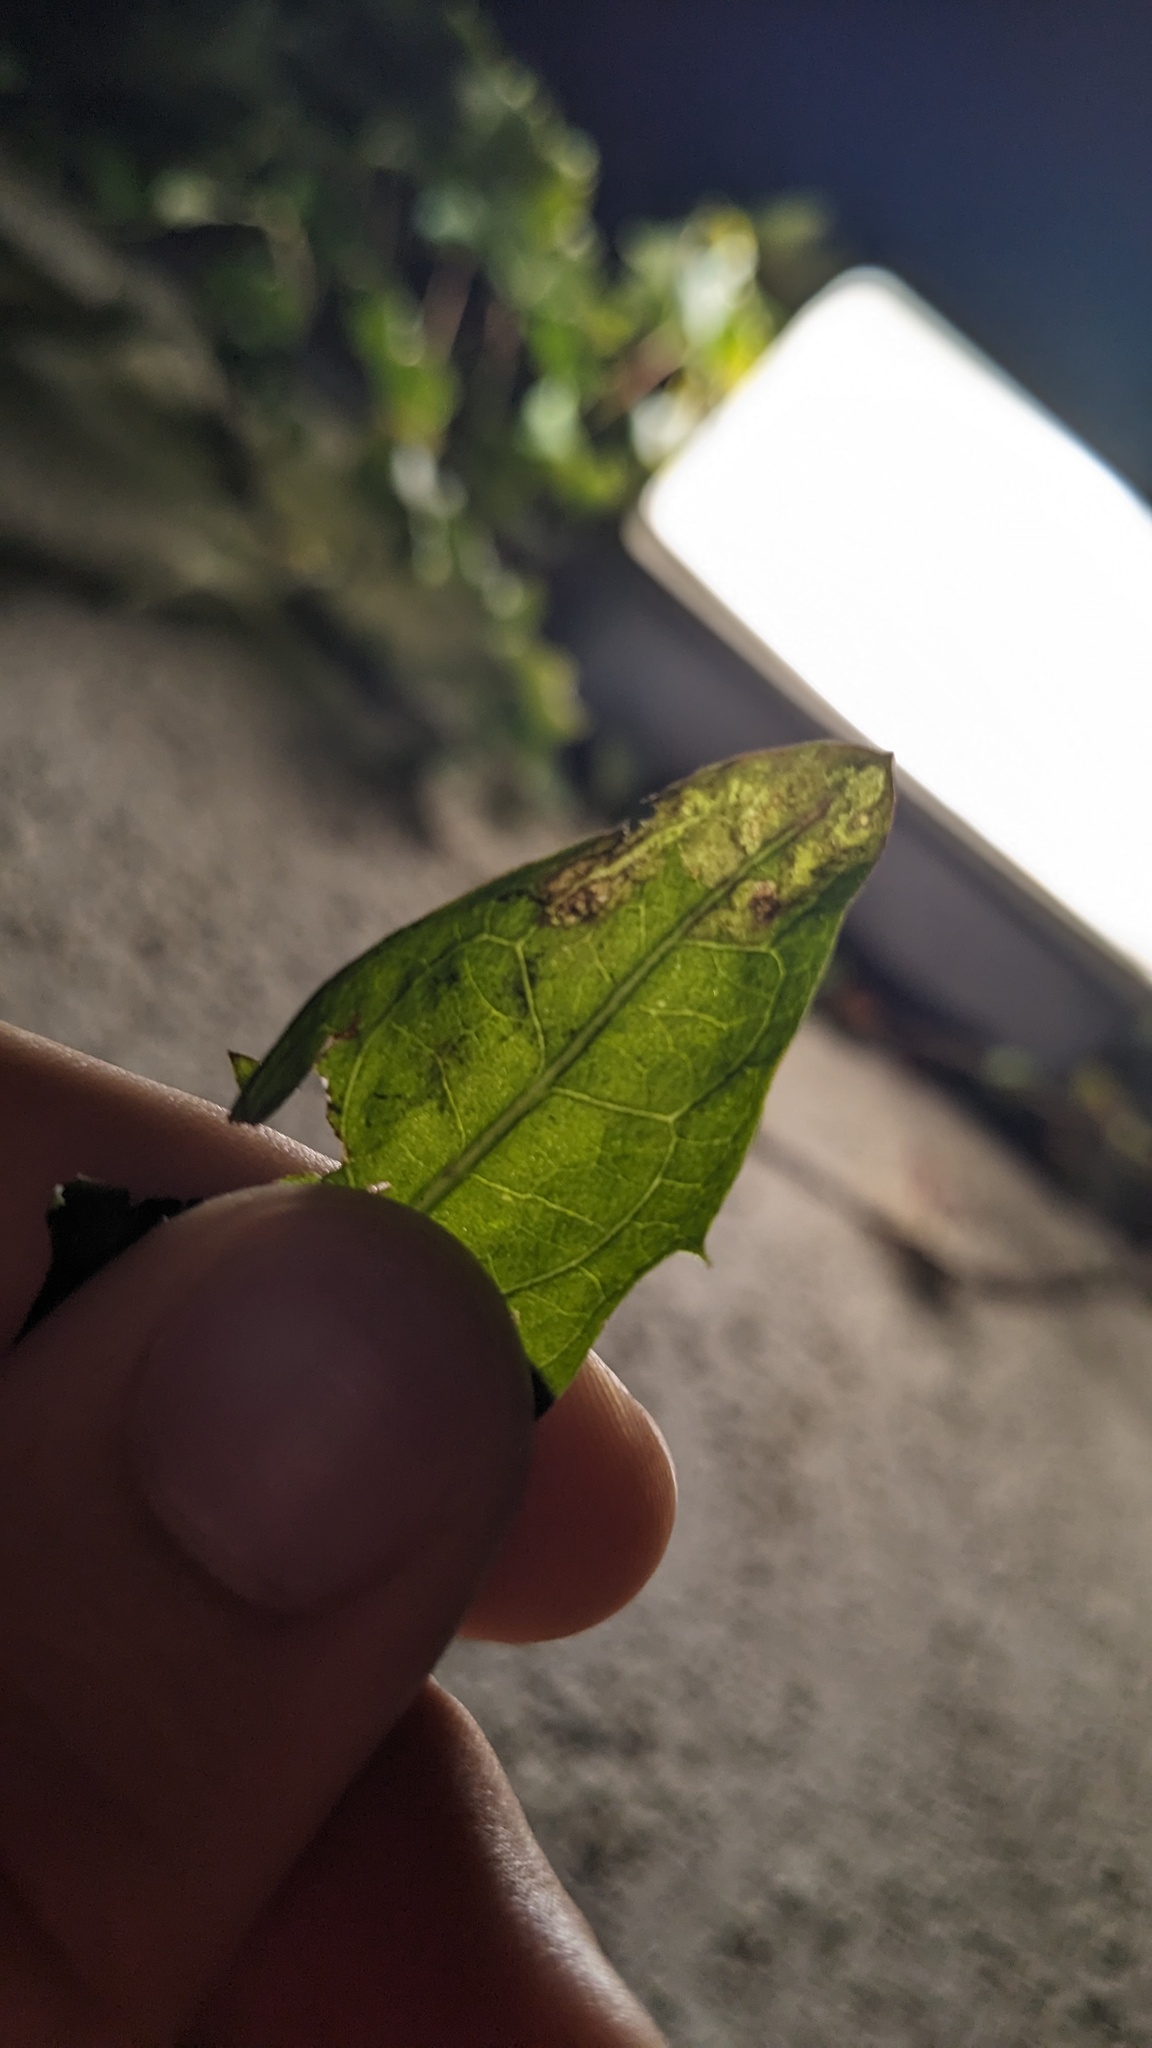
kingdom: Animalia
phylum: Arthropoda
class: Insecta
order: Diptera
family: Agromyzidae
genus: Liriomyza
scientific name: Liriomyza taraxaci
